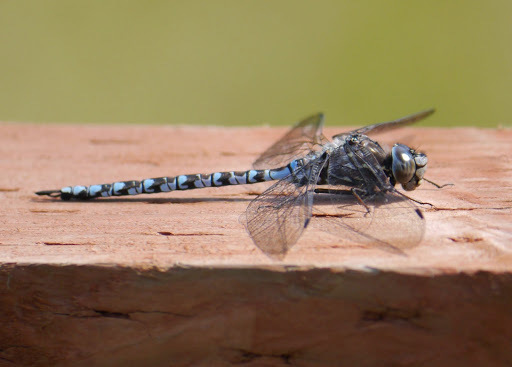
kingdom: Animalia
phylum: Arthropoda
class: Insecta
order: Odonata
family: Aeshnidae
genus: Aeshna
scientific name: Aeshna sitchensis
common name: Zigzag darner
